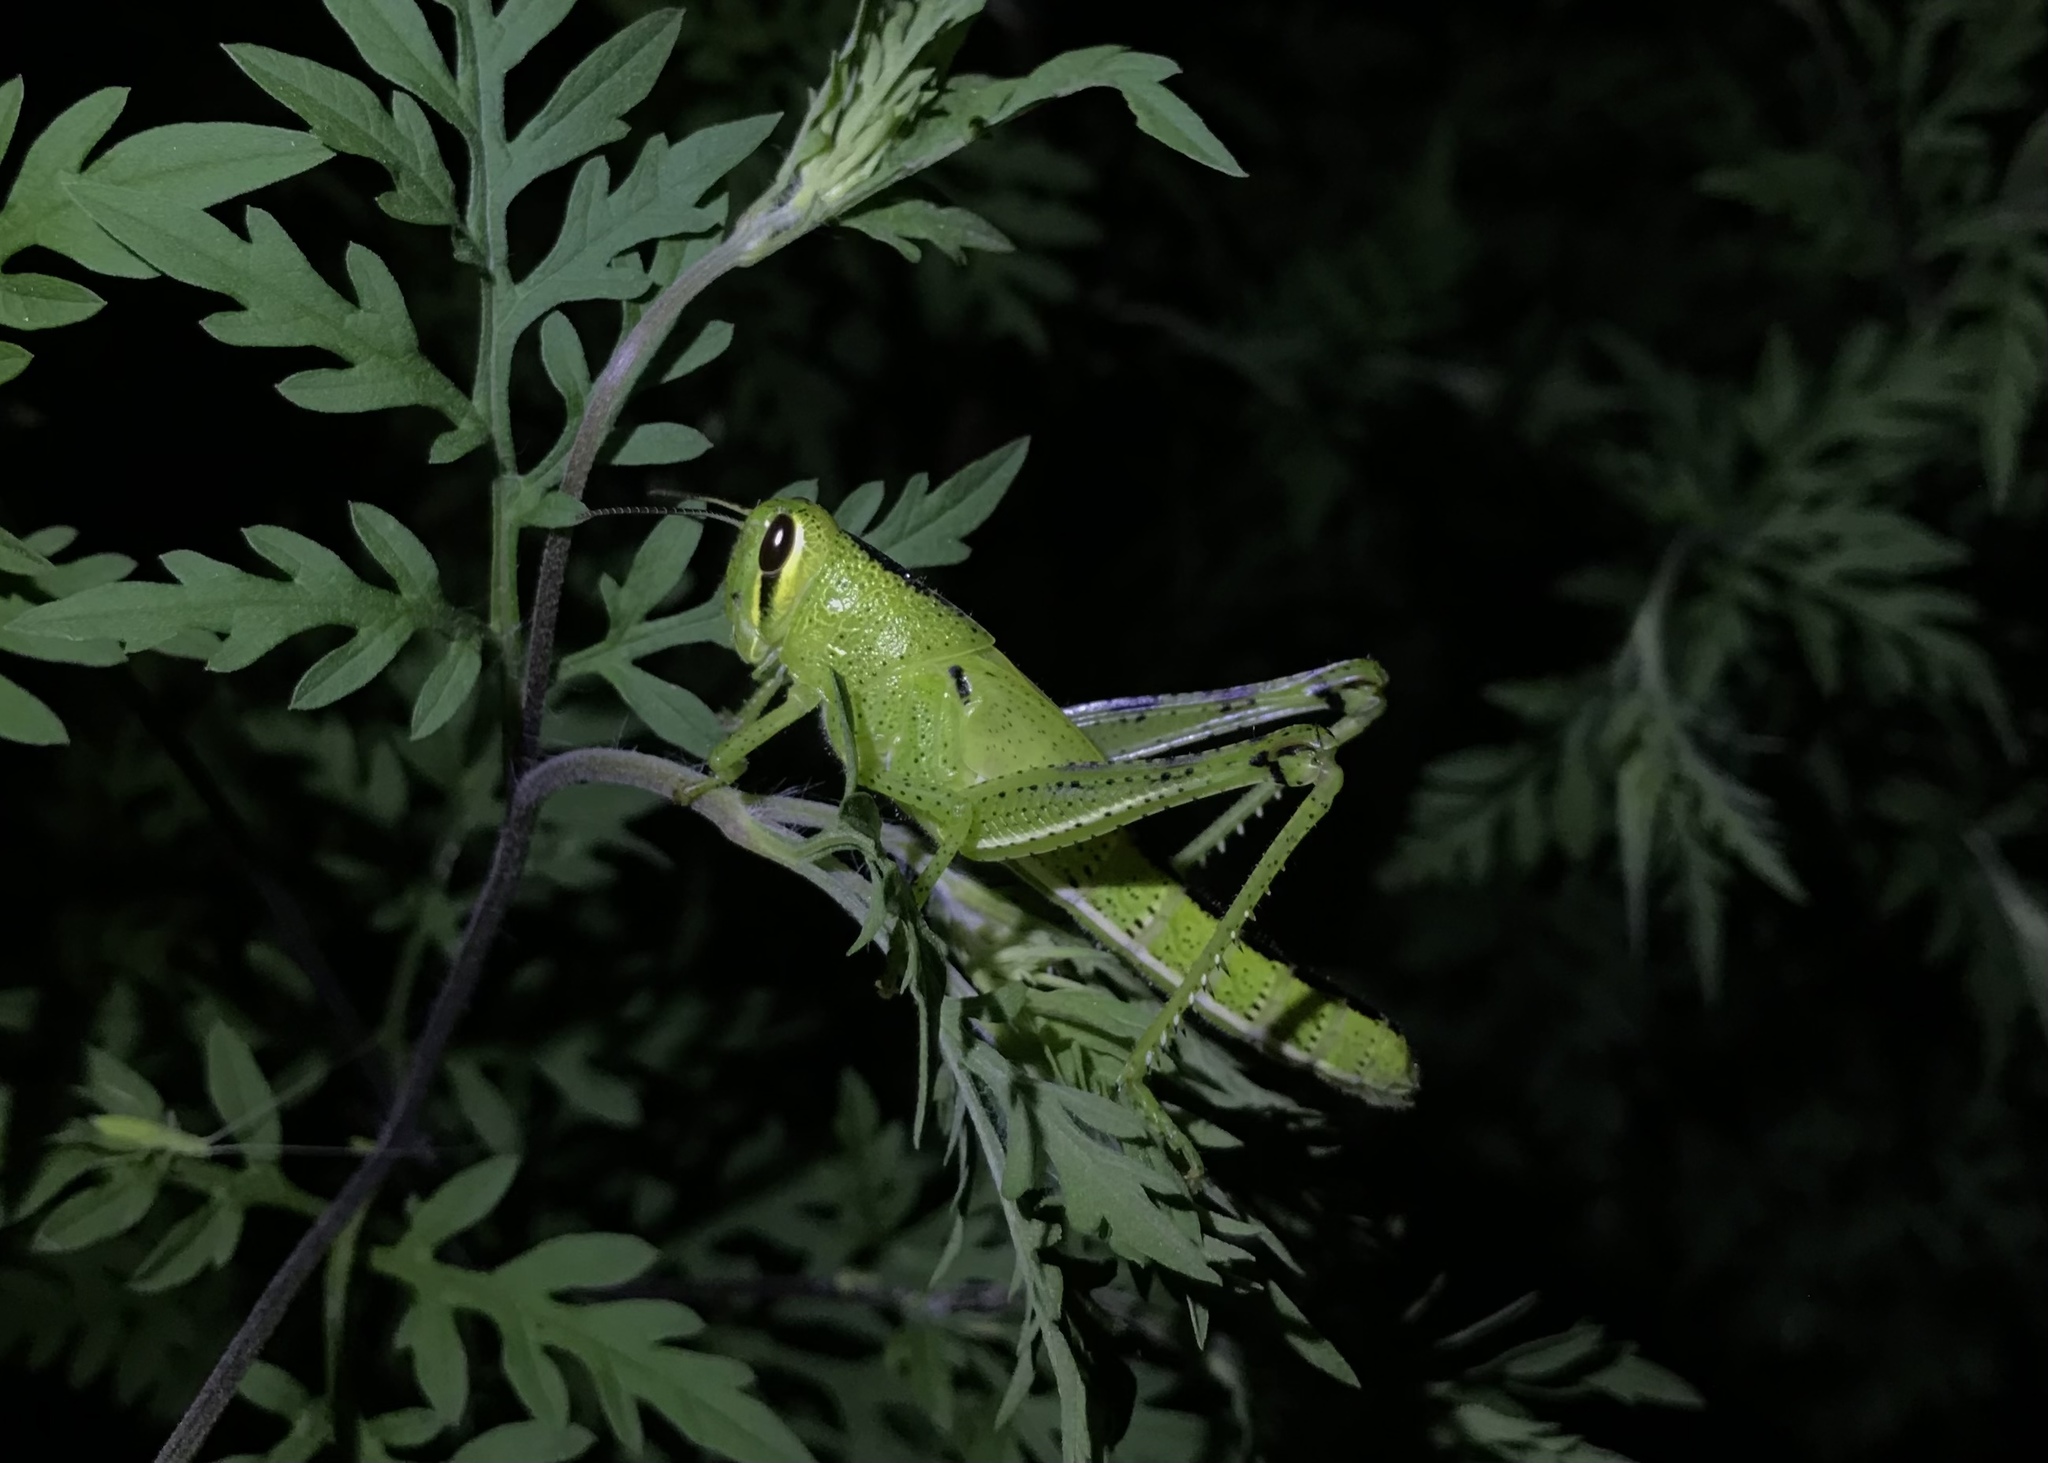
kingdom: Animalia
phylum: Arthropoda
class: Insecta
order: Orthoptera
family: Acrididae
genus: Schistocerca
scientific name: Schistocerca americana
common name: American bird locust
